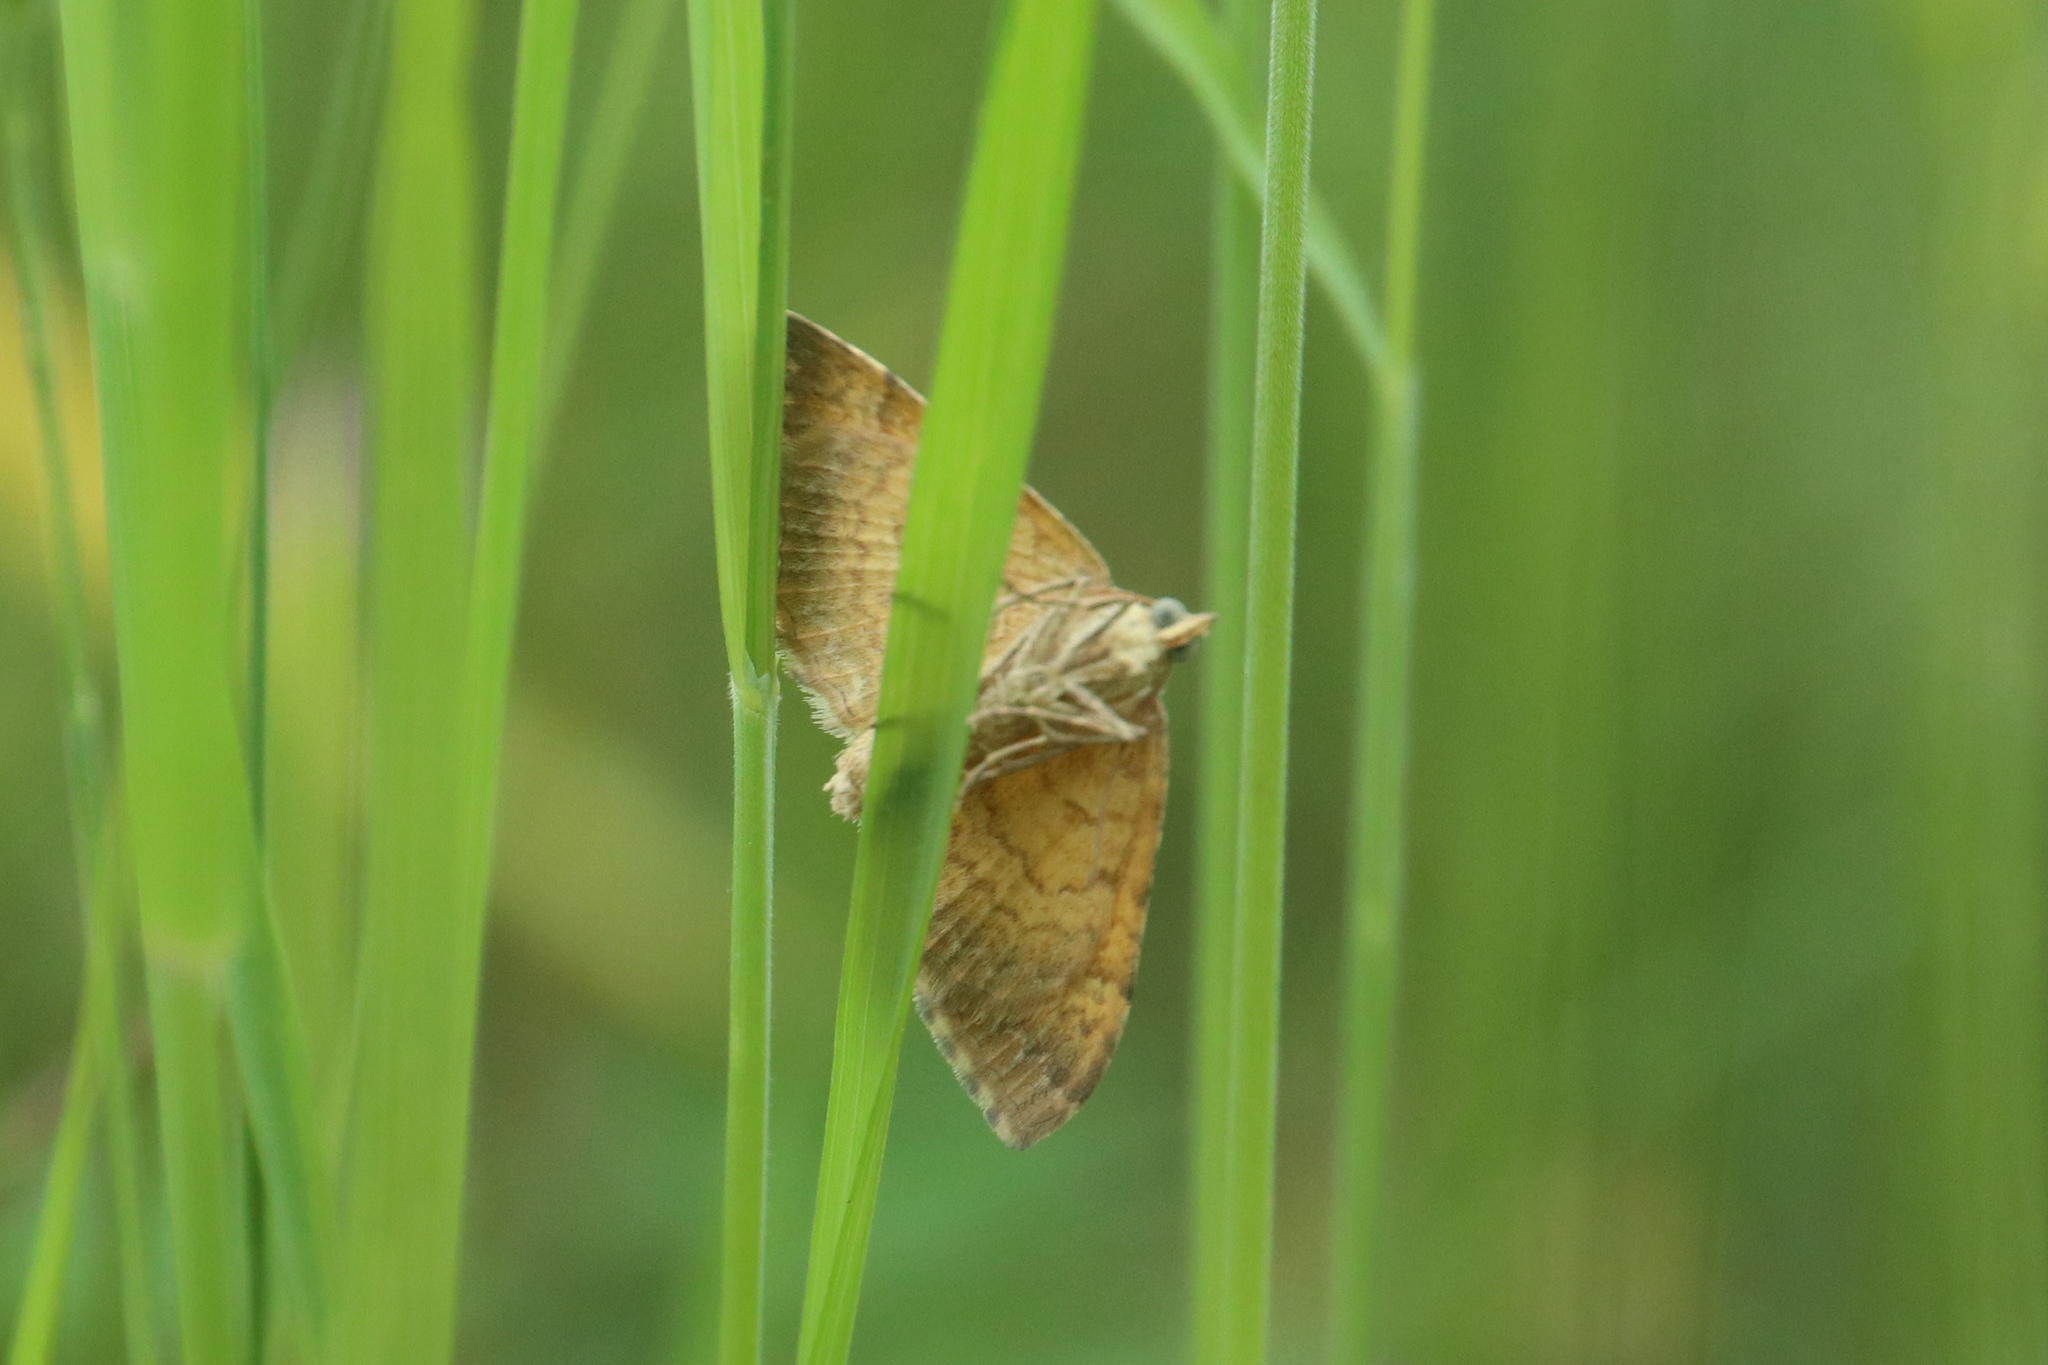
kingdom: Animalia
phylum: Arthropoda
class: Insecta
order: Lepidoptera
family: Geometridae
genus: Camptogramma
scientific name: Camptogramma bilineata
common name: Yellow shell
